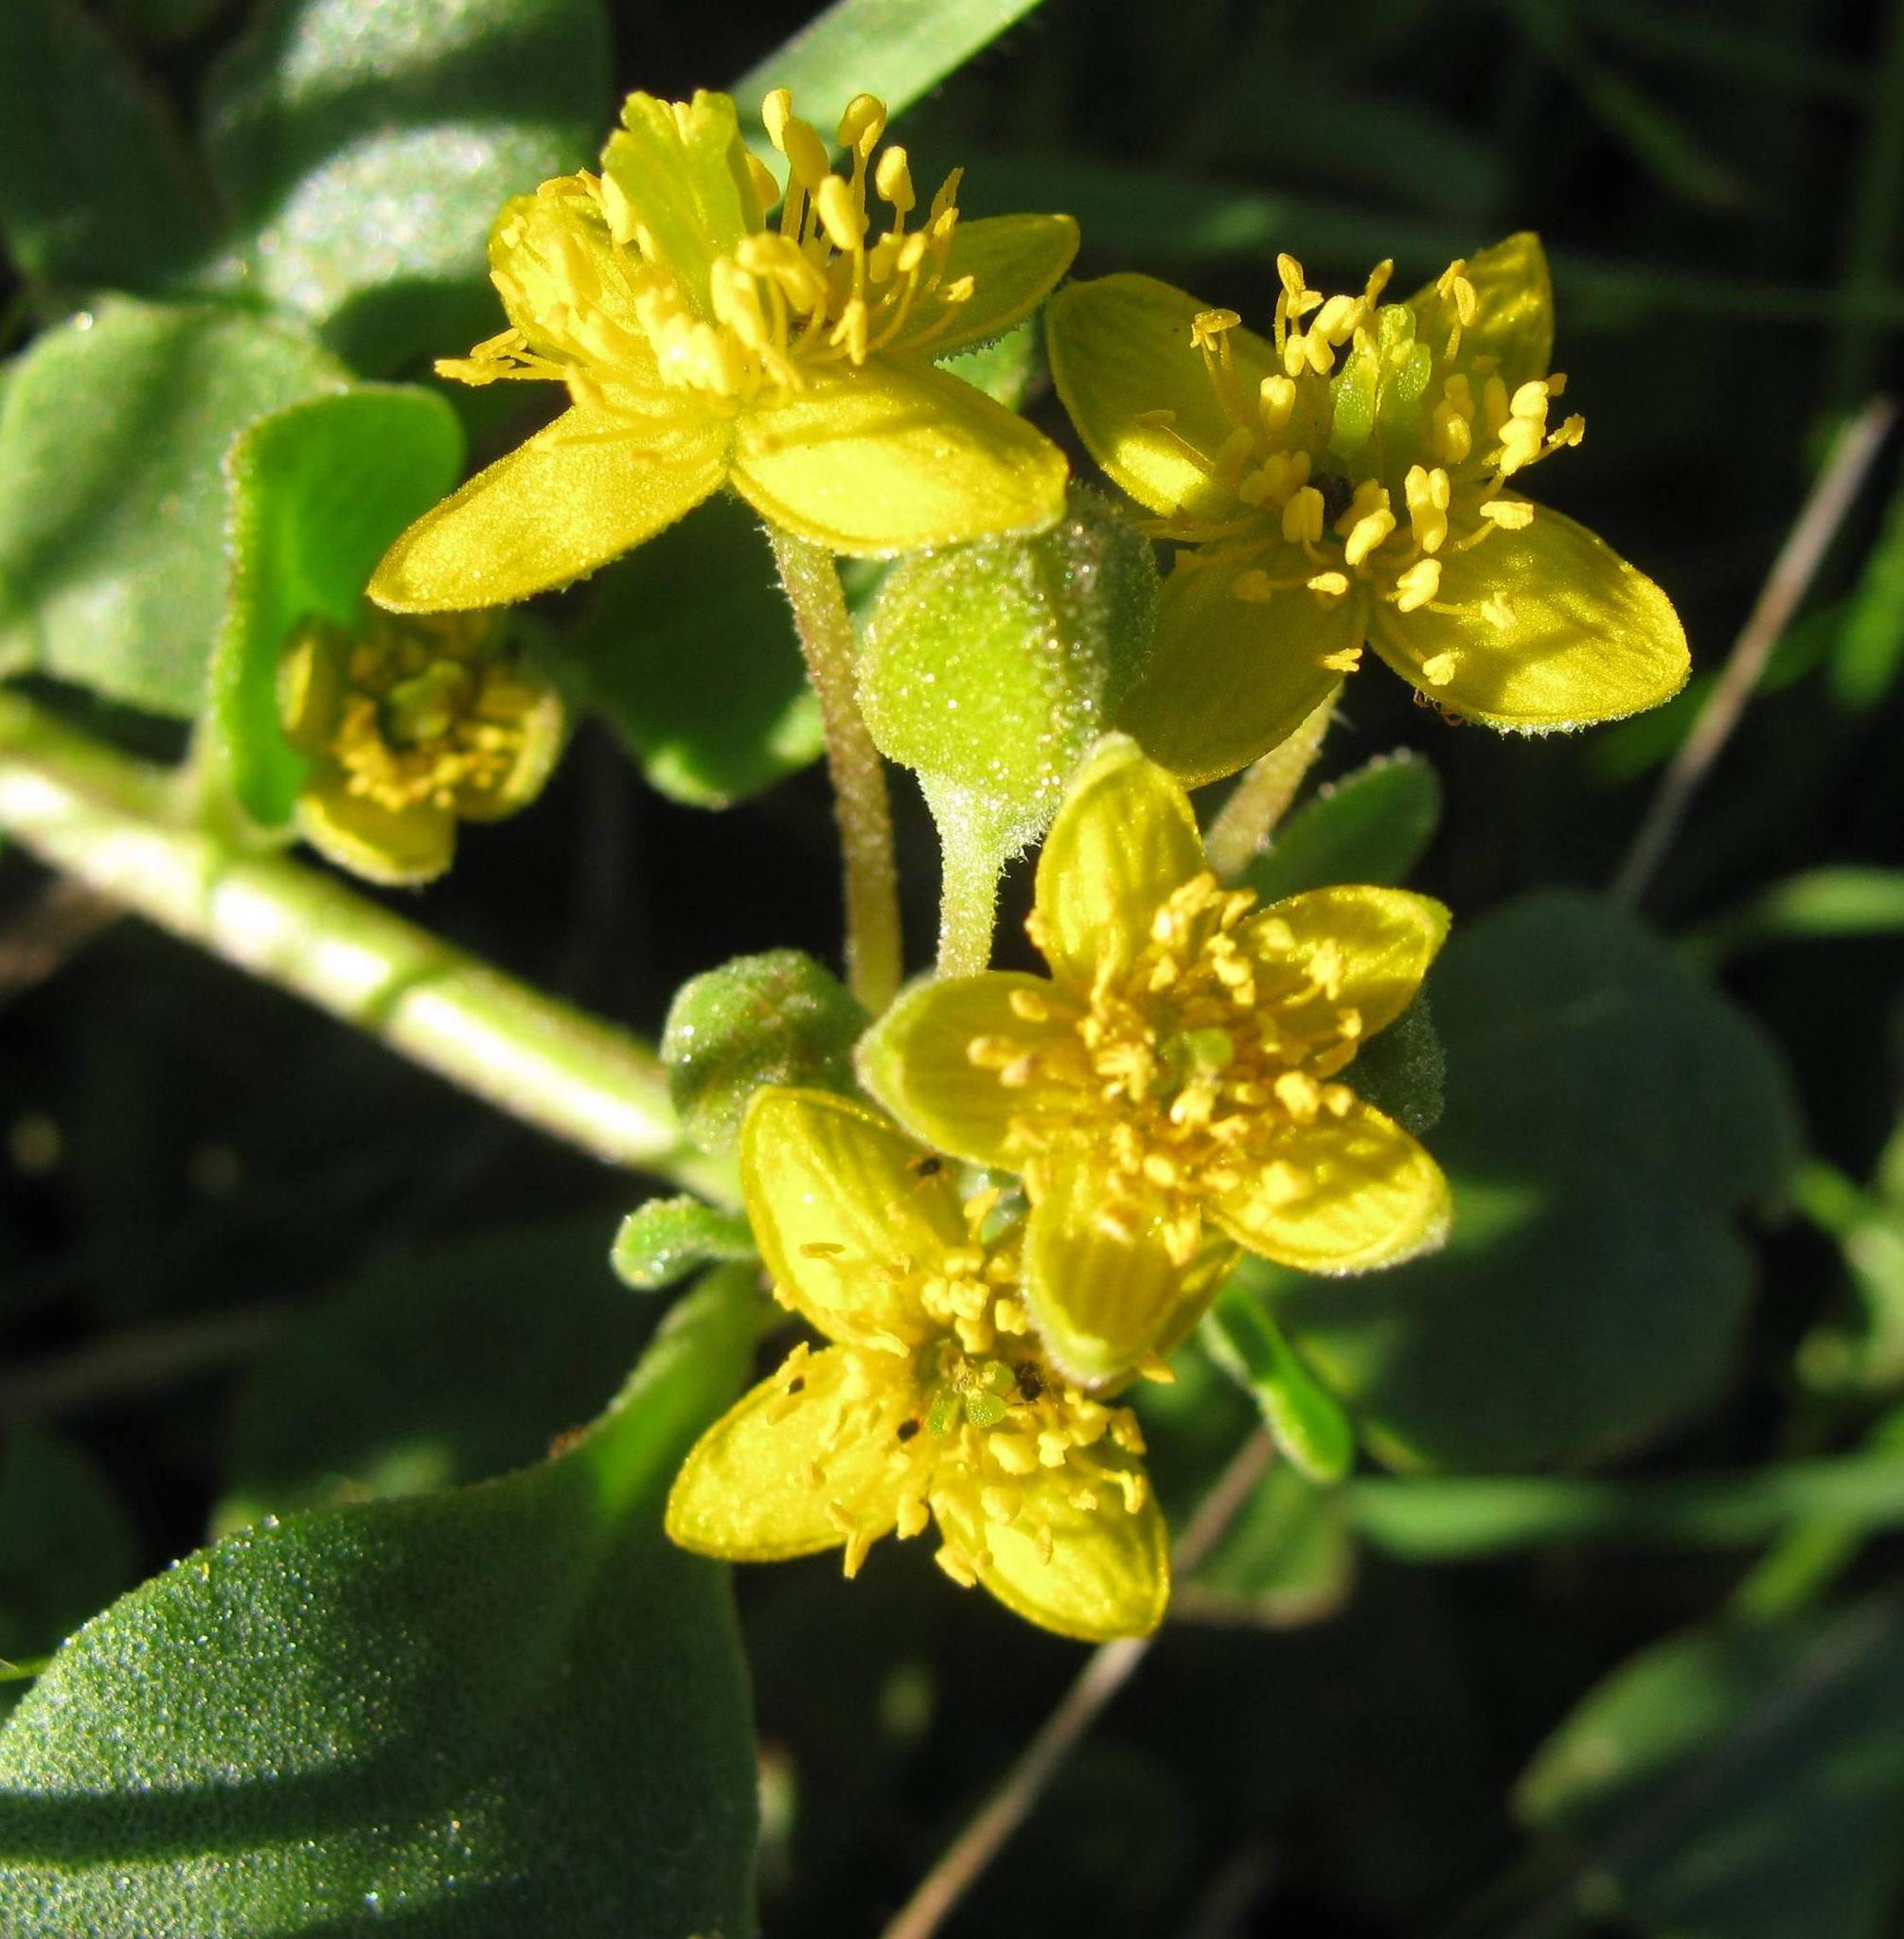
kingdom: Plantae
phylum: Tracheophyta
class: Magnoliopsida
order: Caryophyllales
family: Aizoaceae
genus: Tetragonia
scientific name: Tetragonia herbacea
